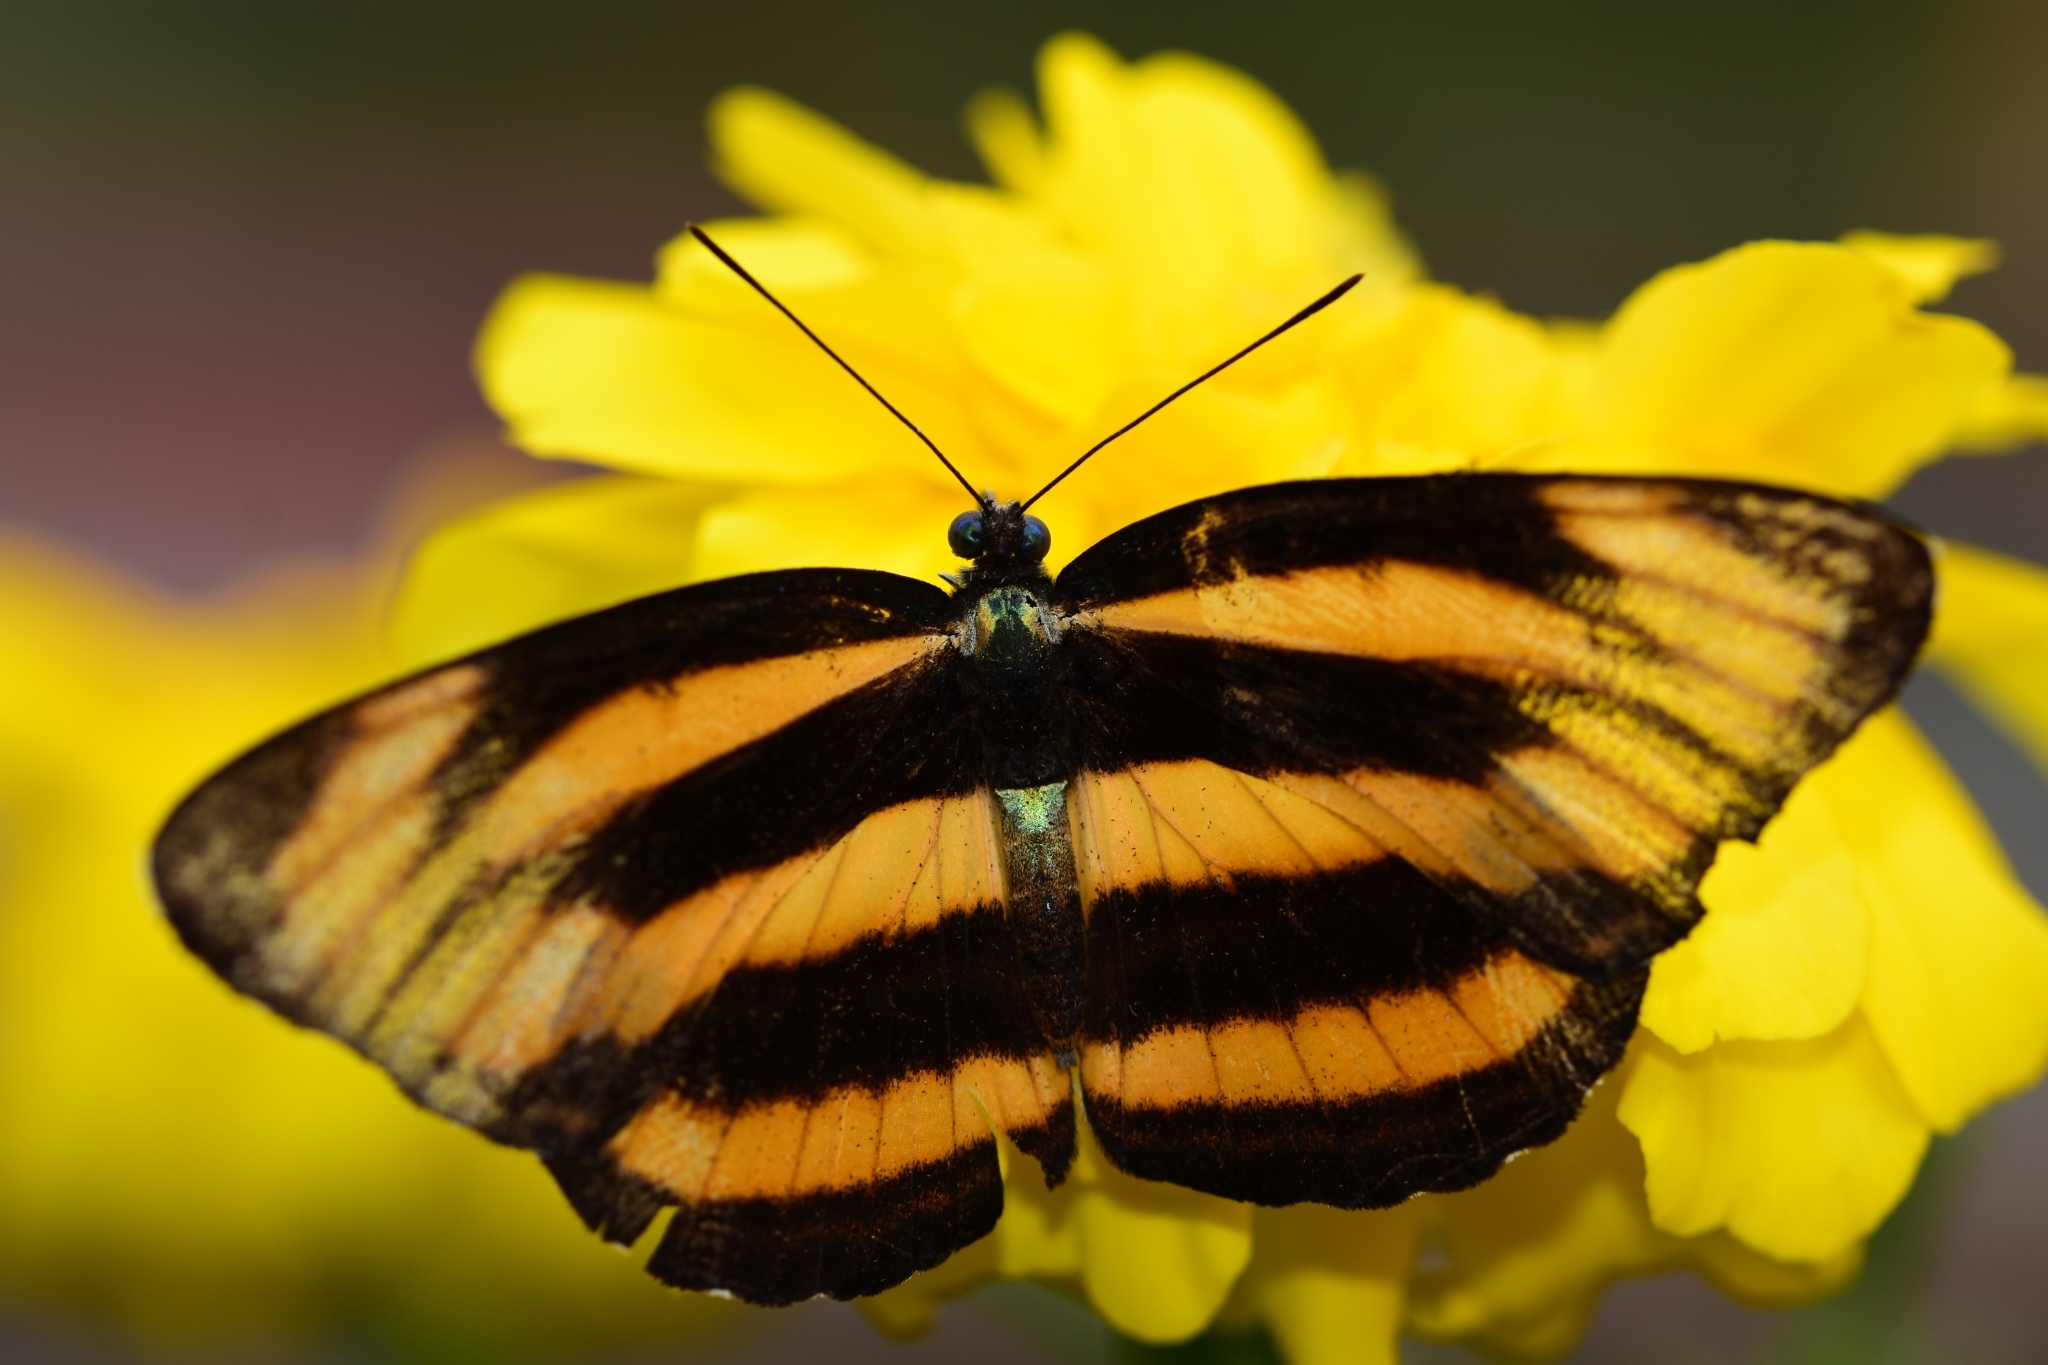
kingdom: Animalia
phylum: Arthropoda
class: Insecta
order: Lepidoptera
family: Nymphalidae
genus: Pantoporia
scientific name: Pantoporia hordonia
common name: Common lascar
